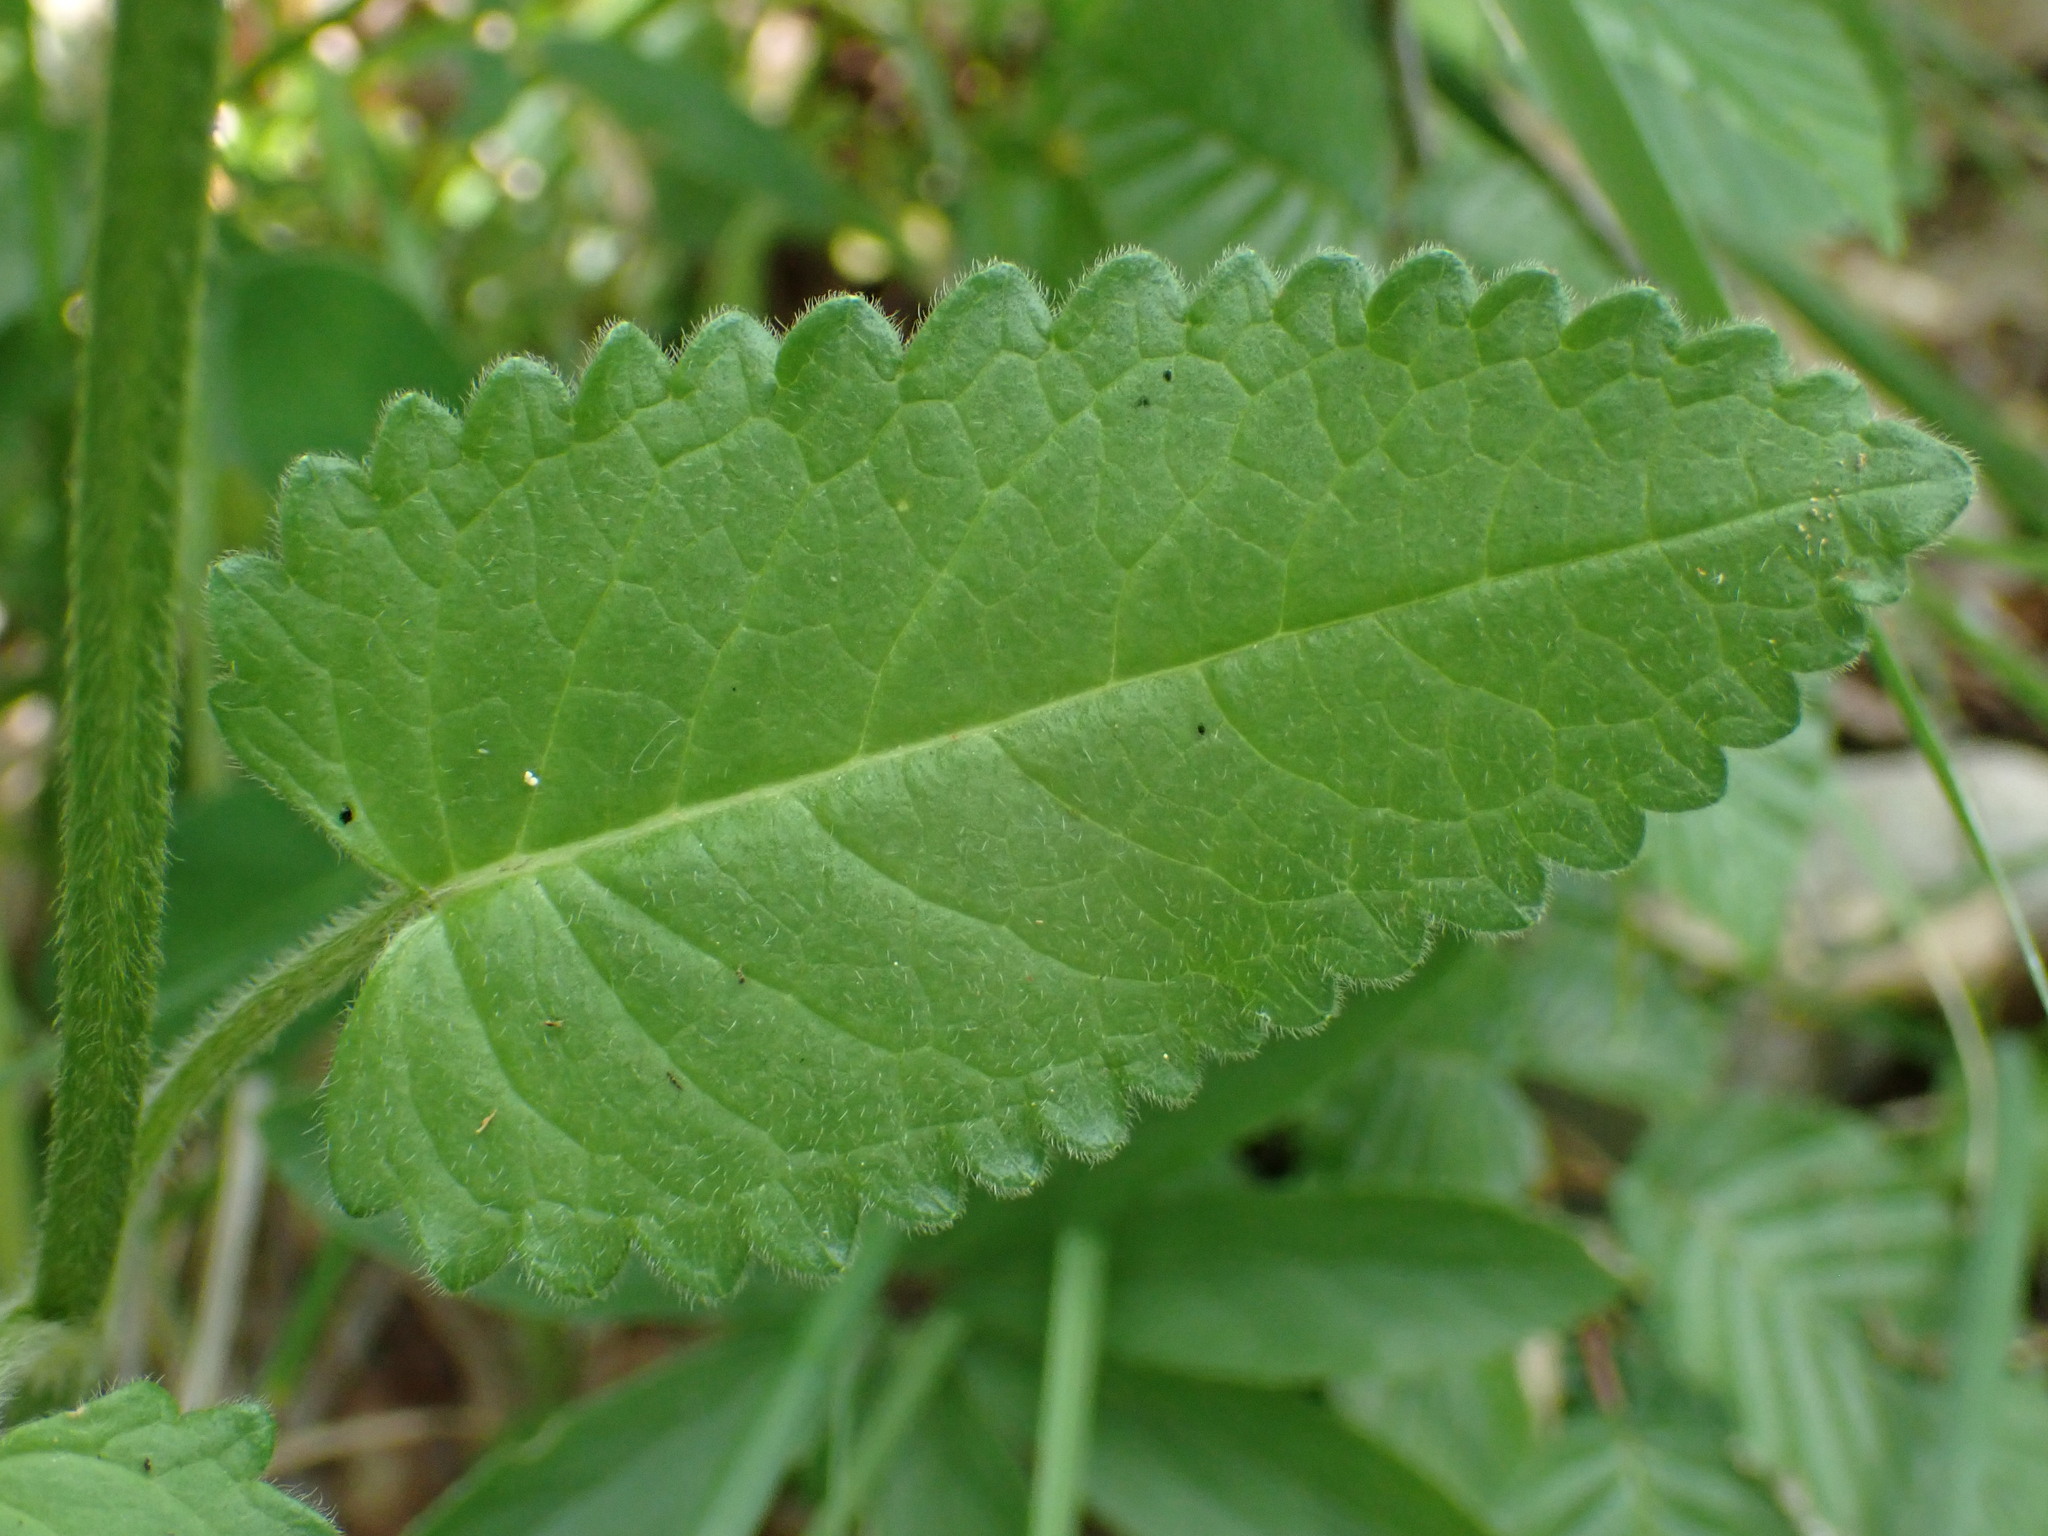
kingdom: Plantae
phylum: Tracheophyta
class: Magnoliopsida
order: Lamiales
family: Lamiaceae
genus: Betonica
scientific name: Betonica officinalis
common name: Bishop's-wort
